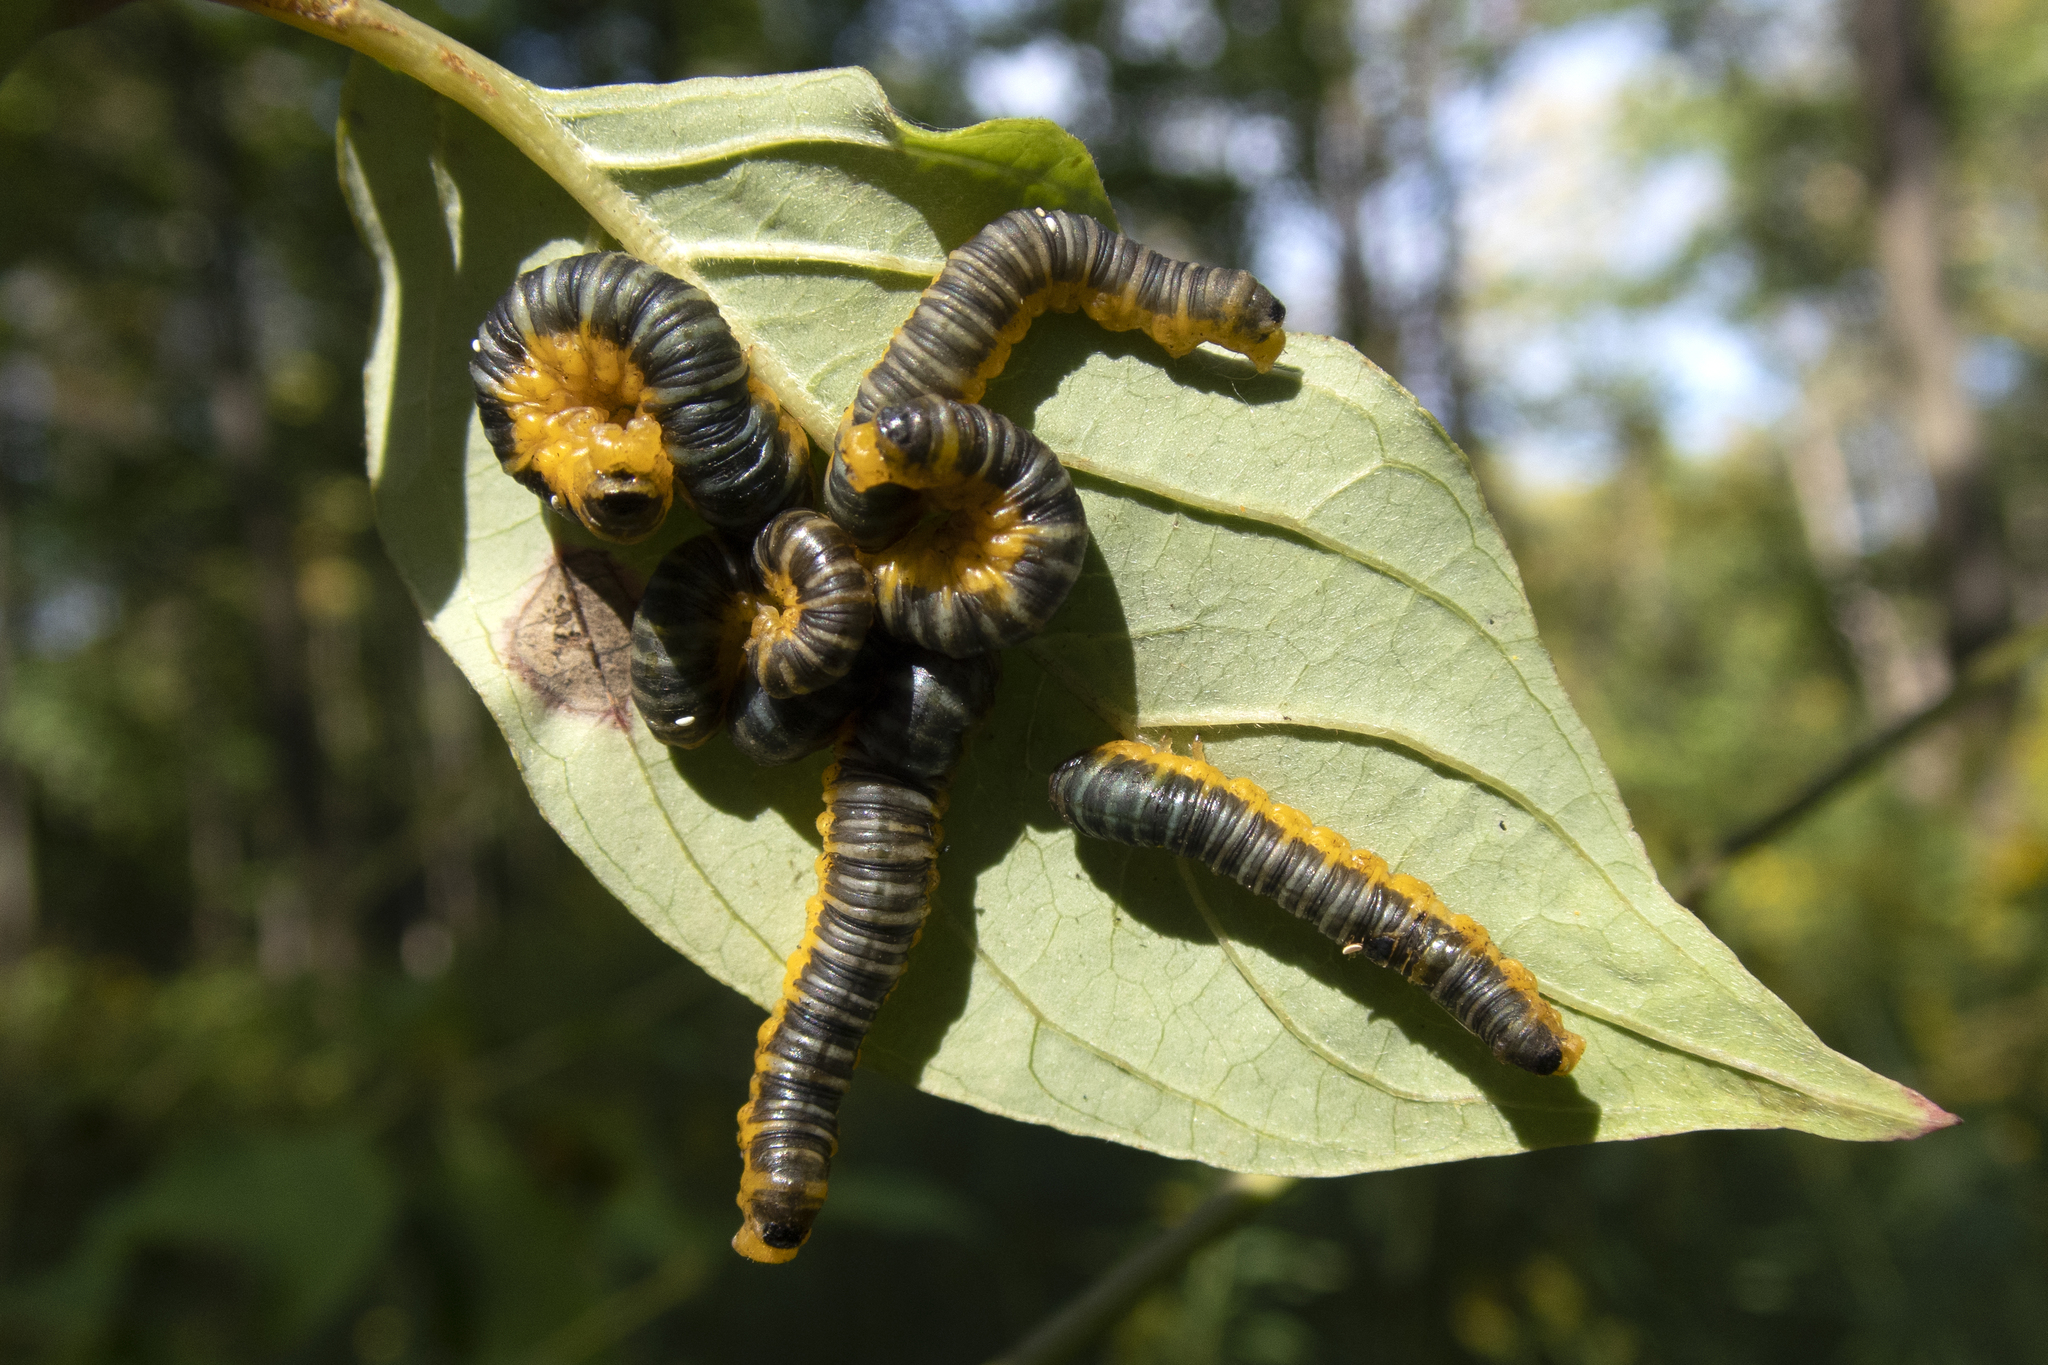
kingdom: Animalia
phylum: Arthropoda
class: Insecta
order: Hymenoptera
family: Tenthredinidae
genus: Macremphytus
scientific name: Macremphytus
